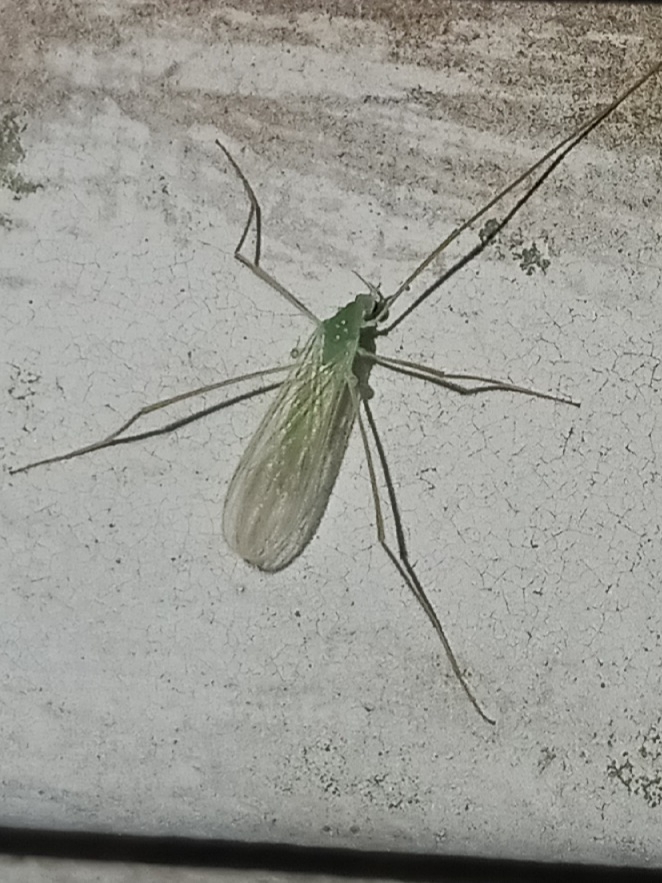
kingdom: Animalia
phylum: Arthropoda
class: Insecta
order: Diptera
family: Limoniidae
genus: Erioptera
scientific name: Erioptera
